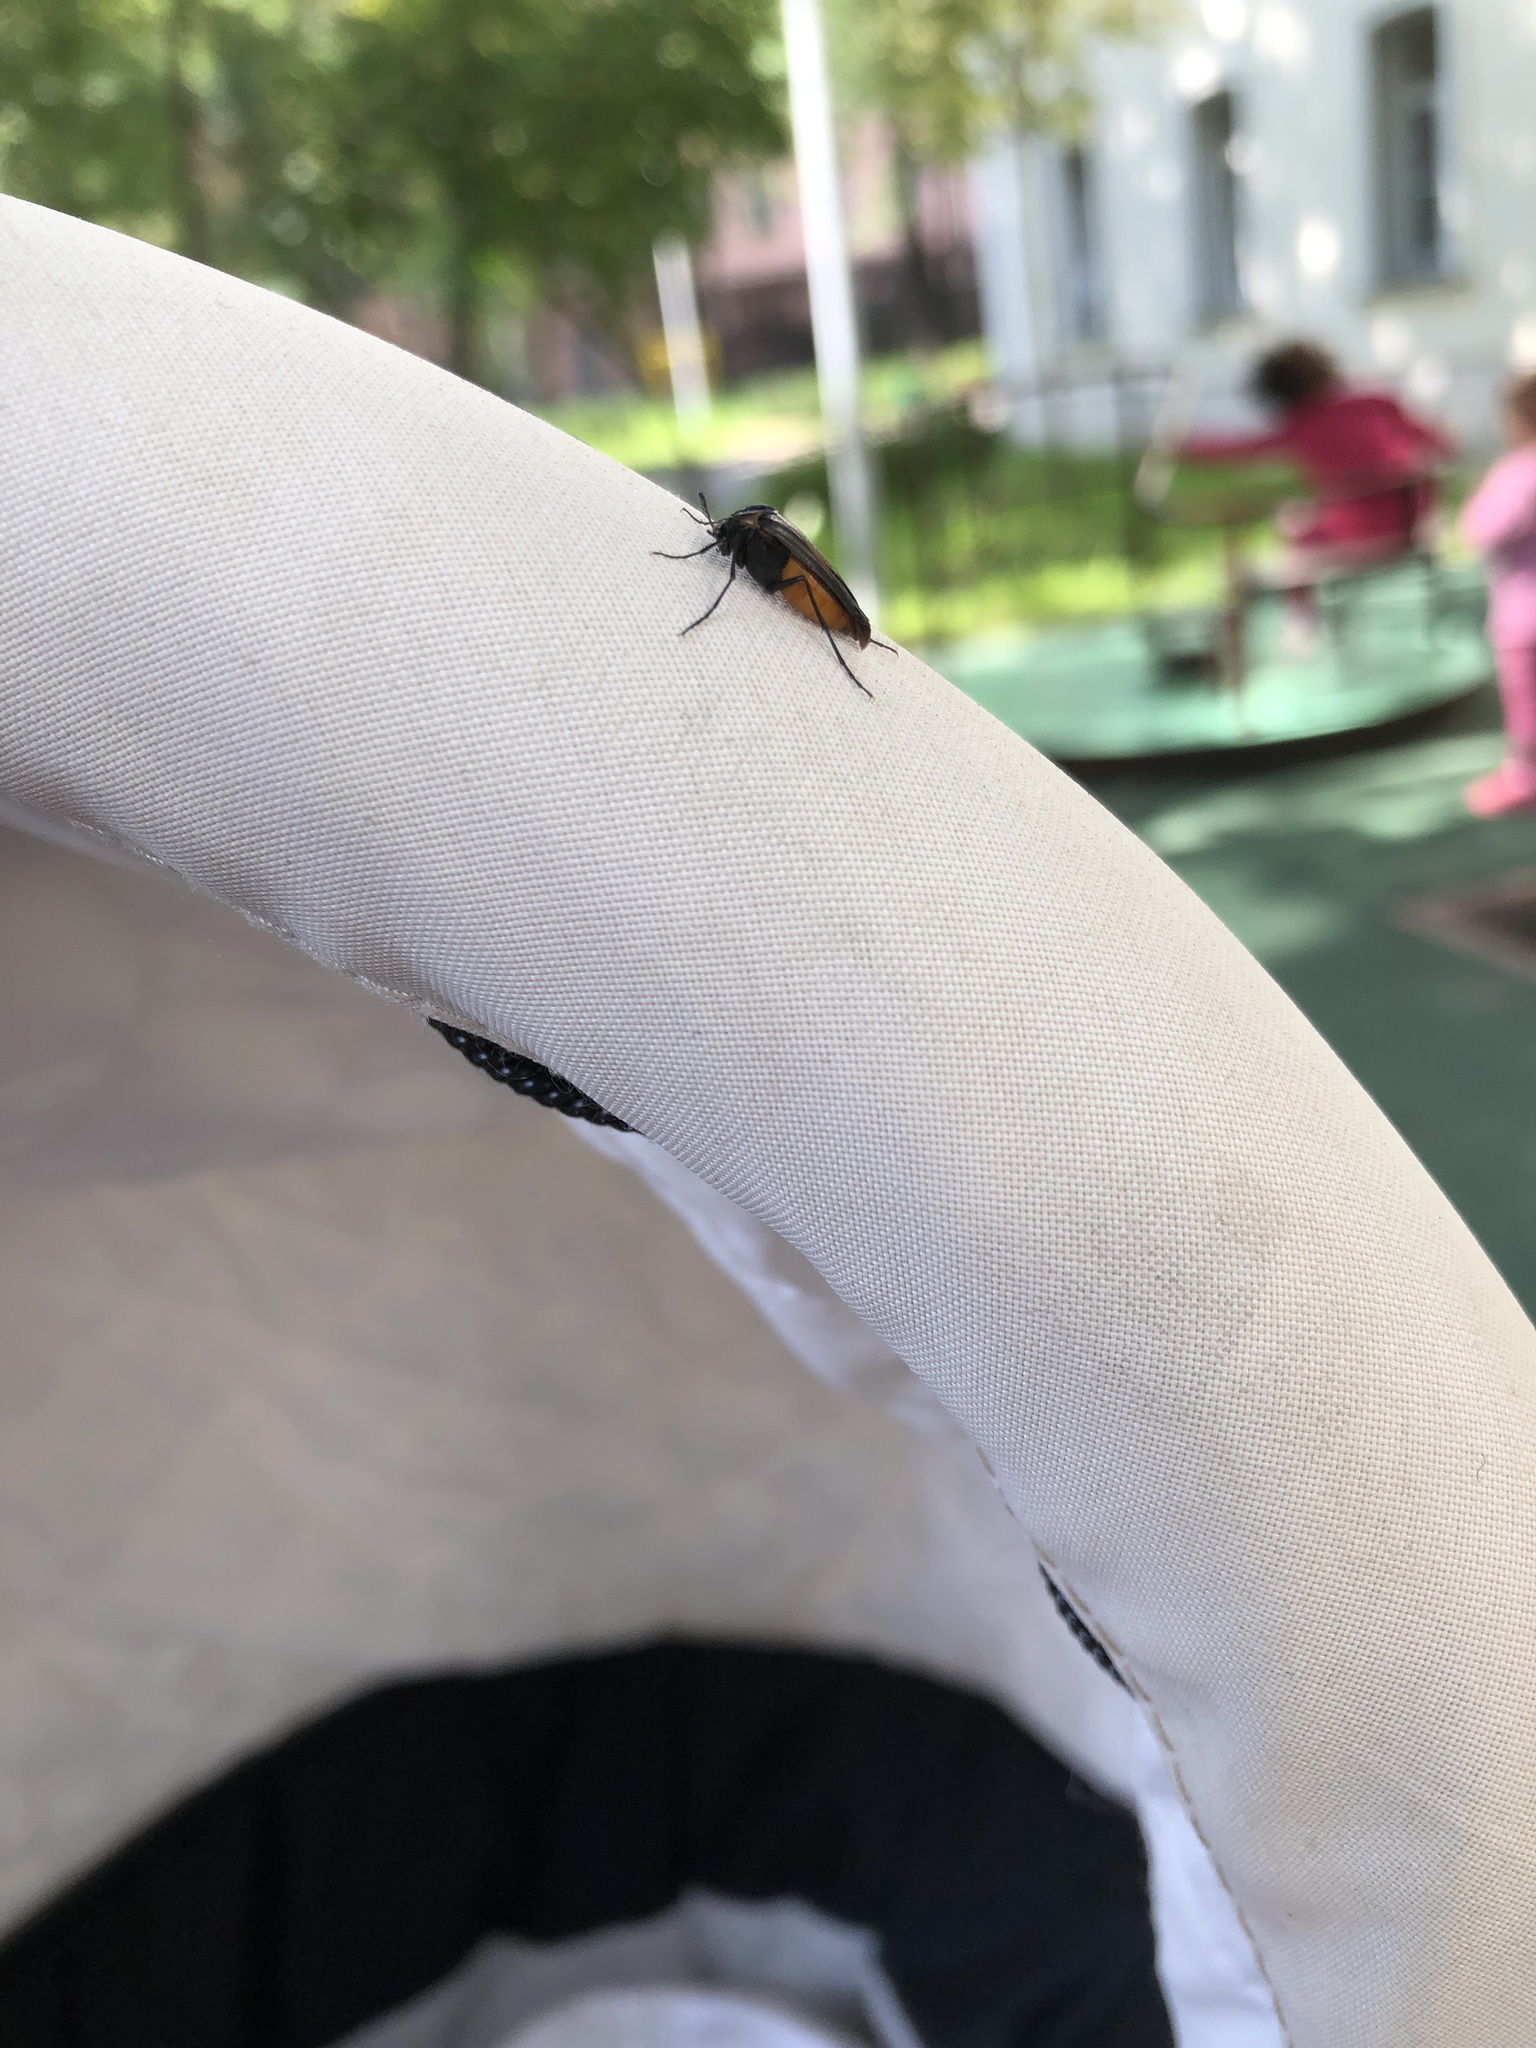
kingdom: Animalia
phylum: Arthropoda
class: Insecta
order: Coleoptera
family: Ripiphoridae
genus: Metoecus
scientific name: Metoecus paradoxus
